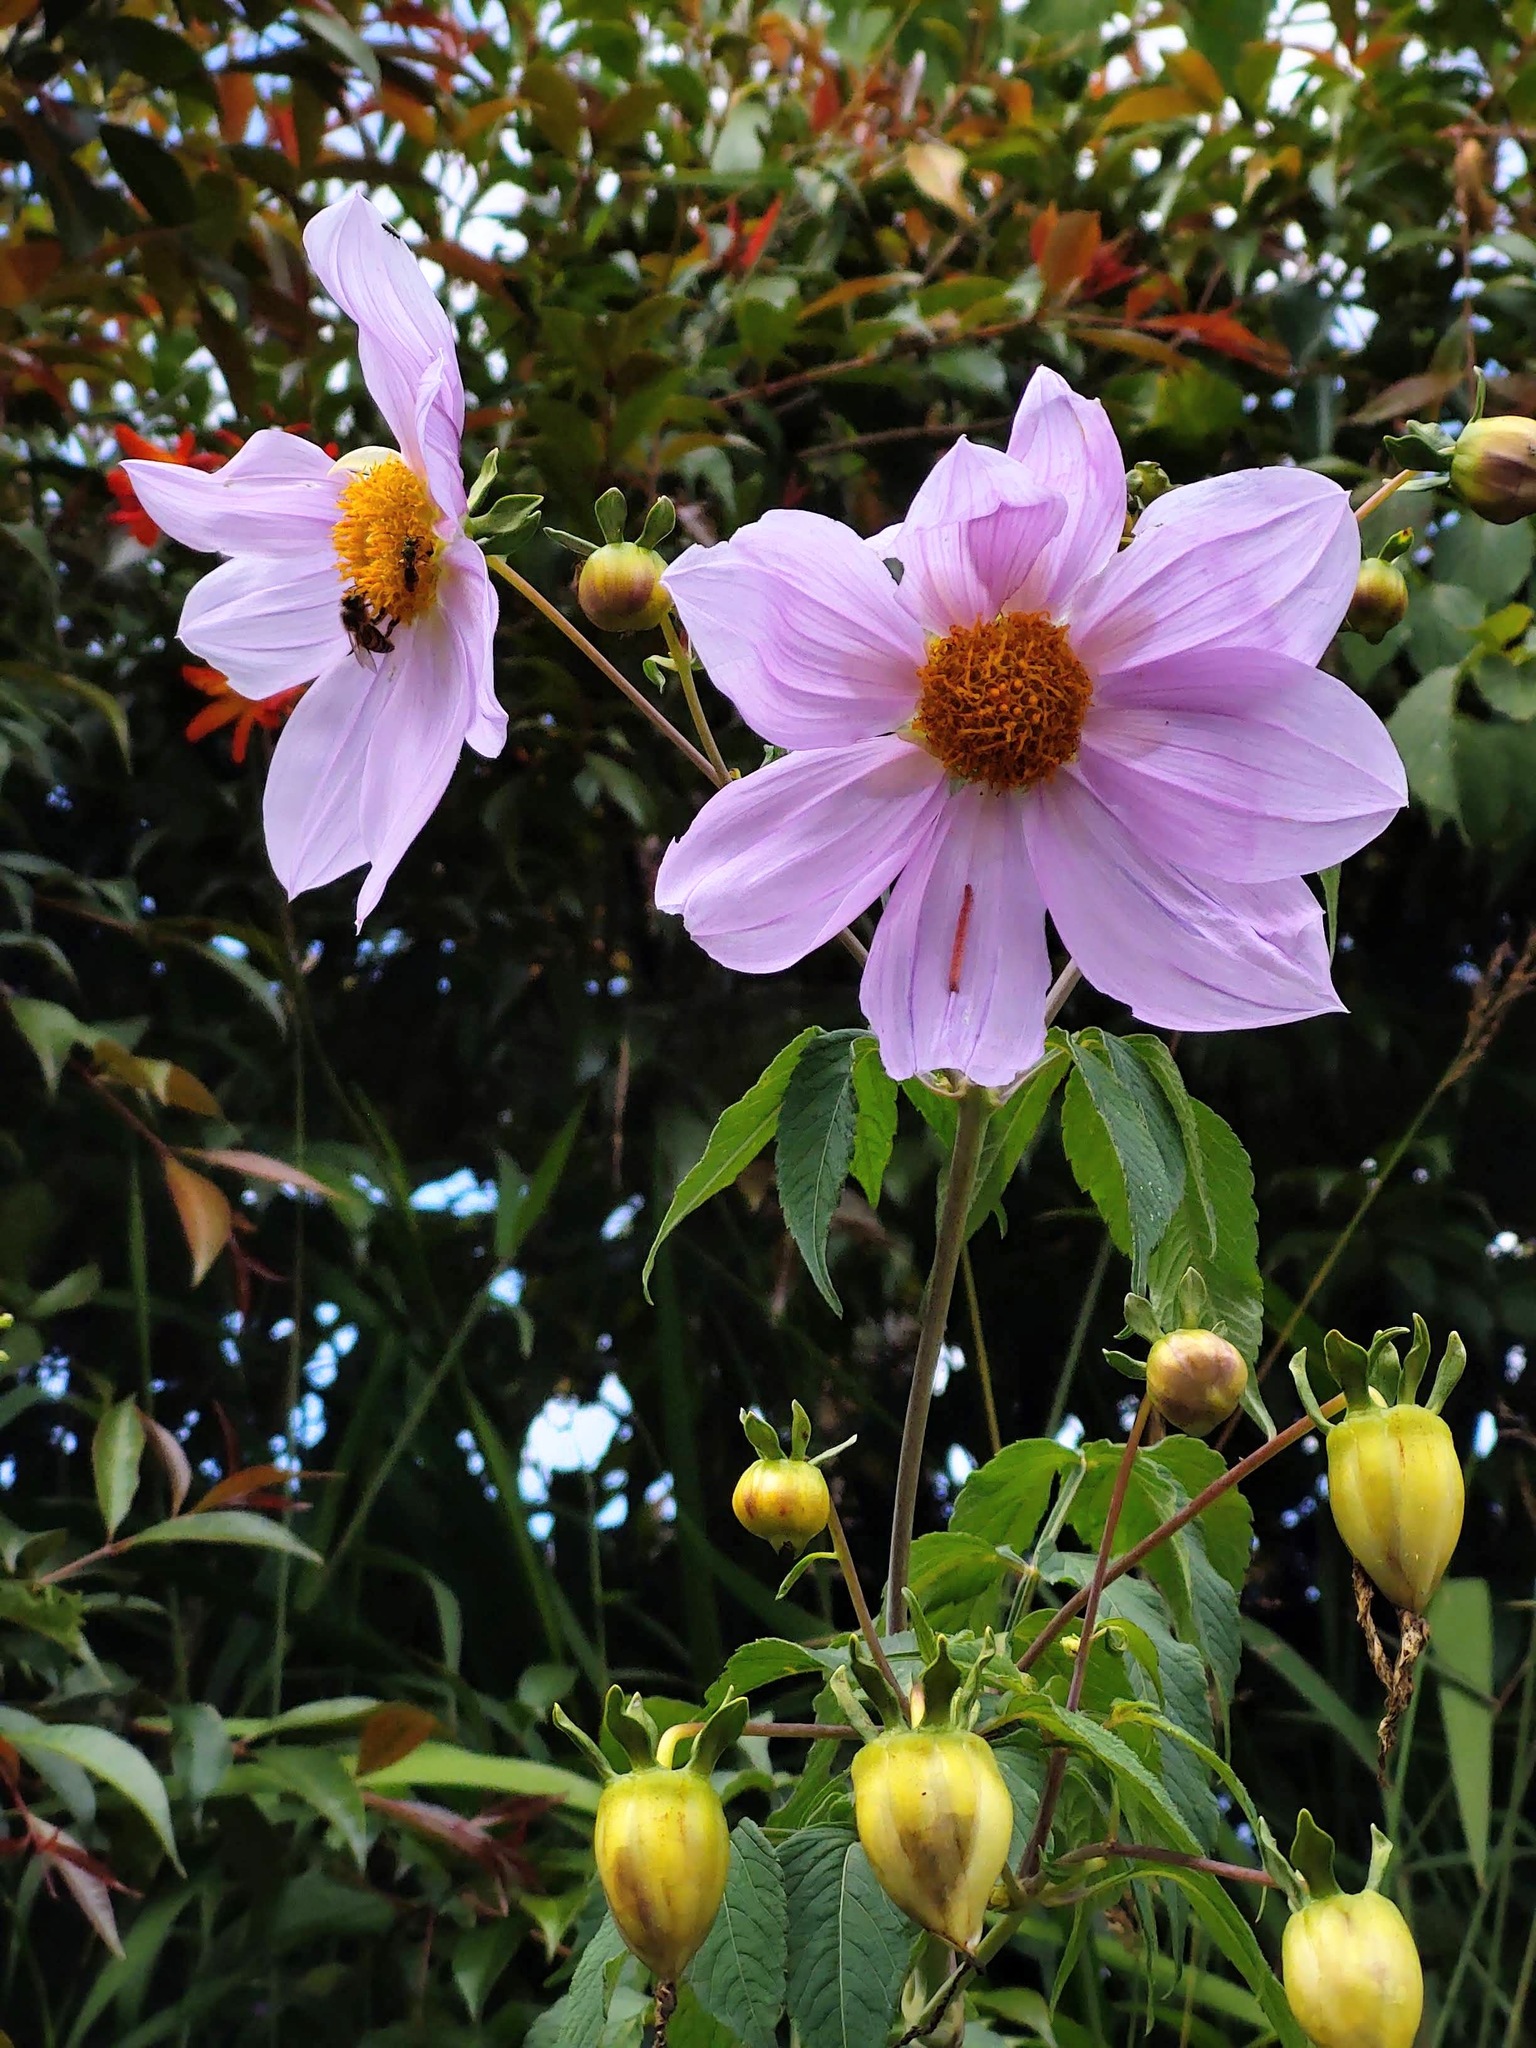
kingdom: Plantae
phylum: Tracheophyta
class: Magnoliopsida
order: Asterales
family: Asteraceae
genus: Dahlia
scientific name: Dahlia imperialis
